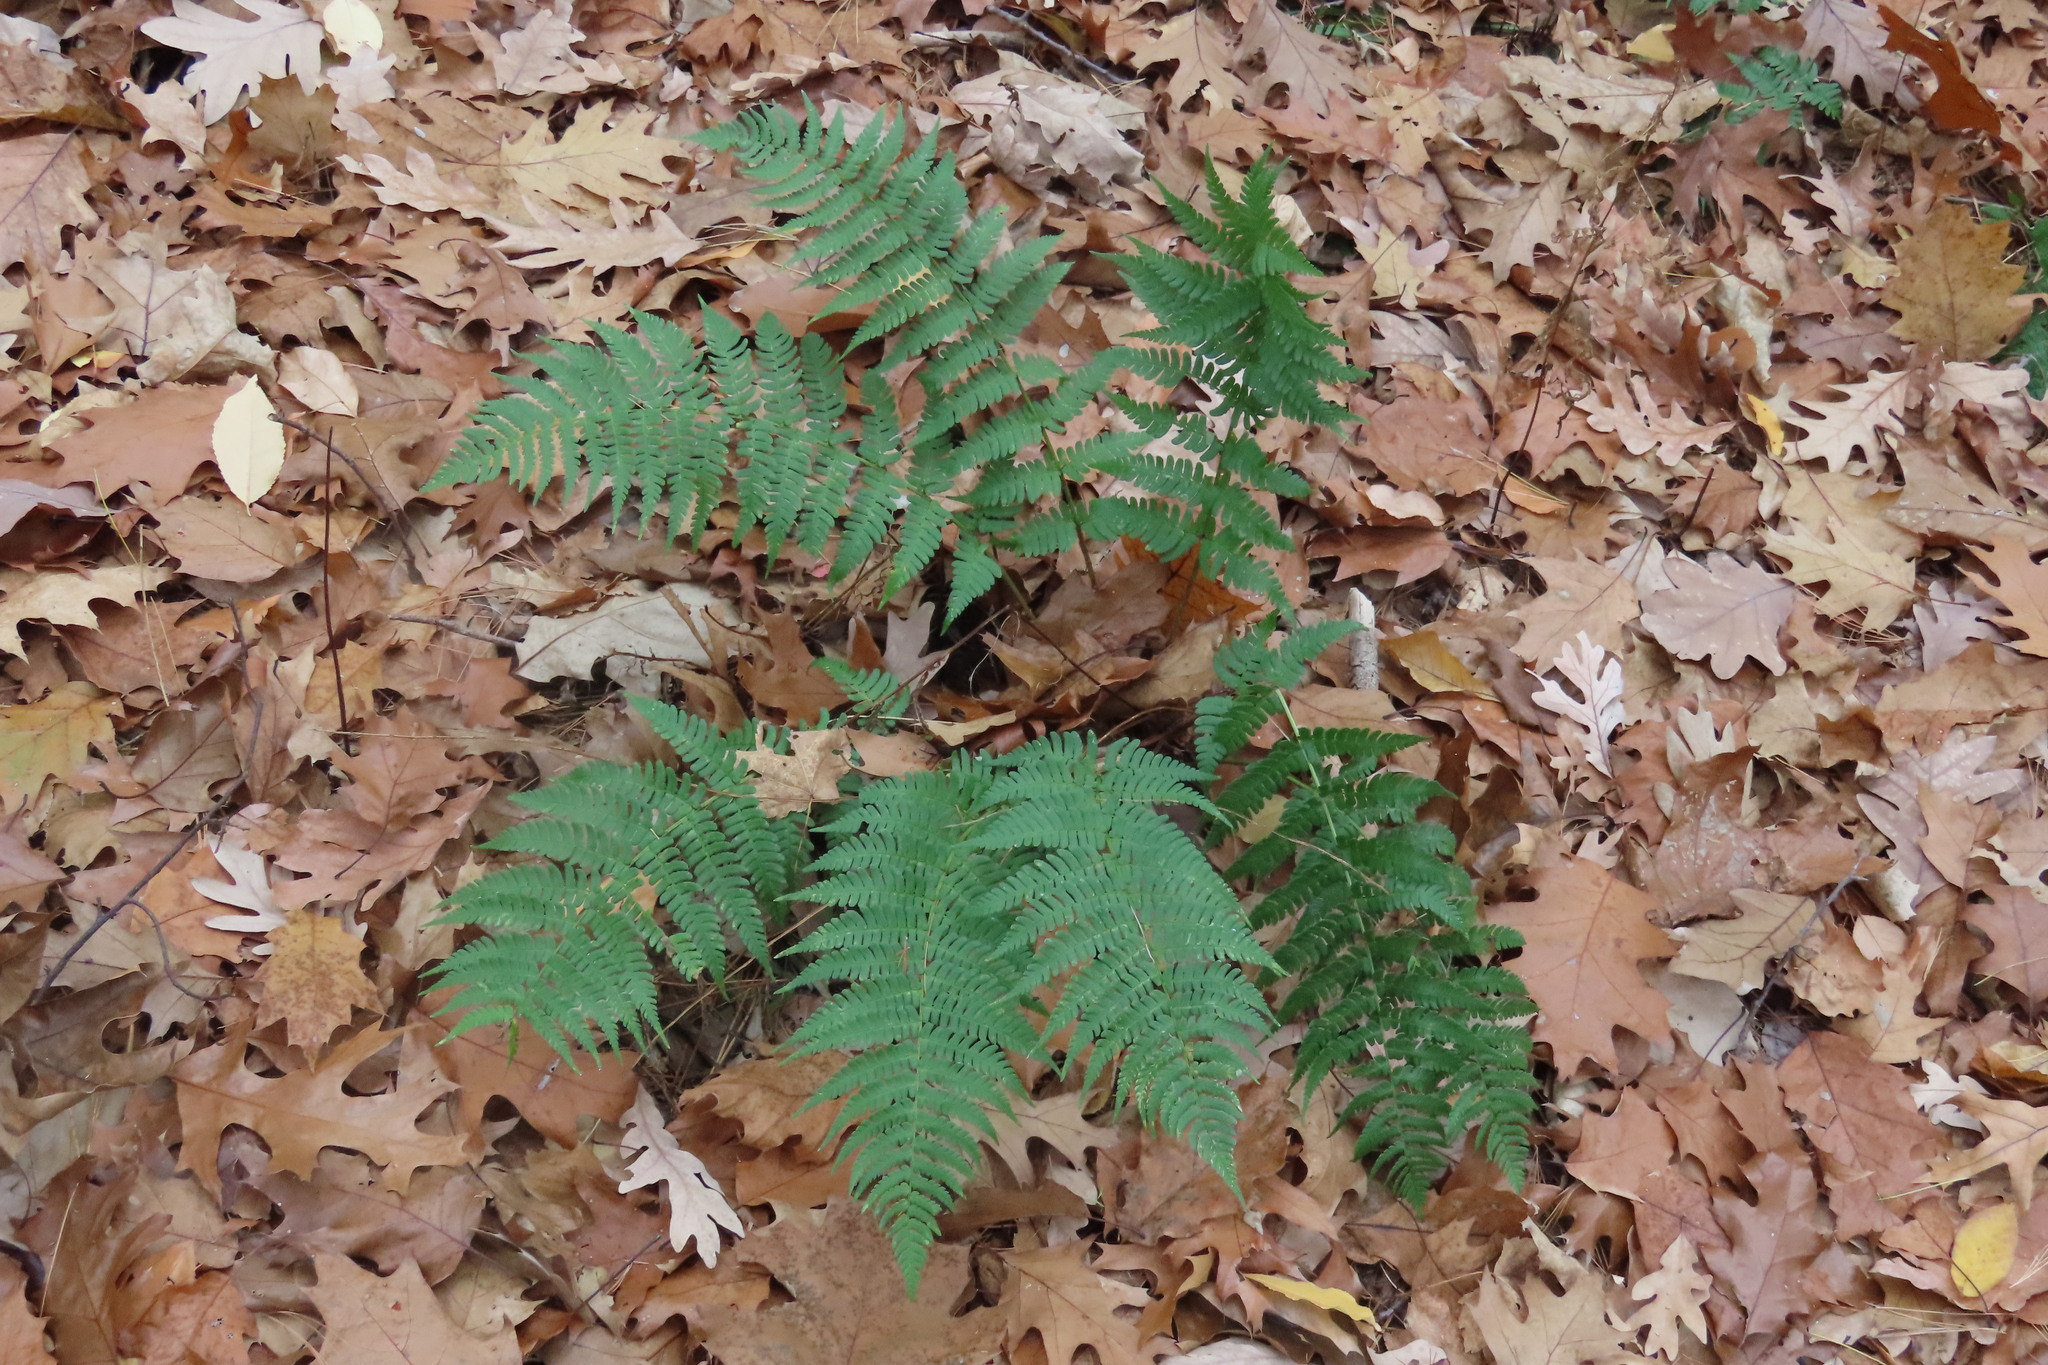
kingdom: Plantae
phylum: Tracheophyta
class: Polypodiopsida
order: Polypodiales
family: Dryopteridaceae
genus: Dryopteris
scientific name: Dryopteris marginalis
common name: Marginal wood fern
